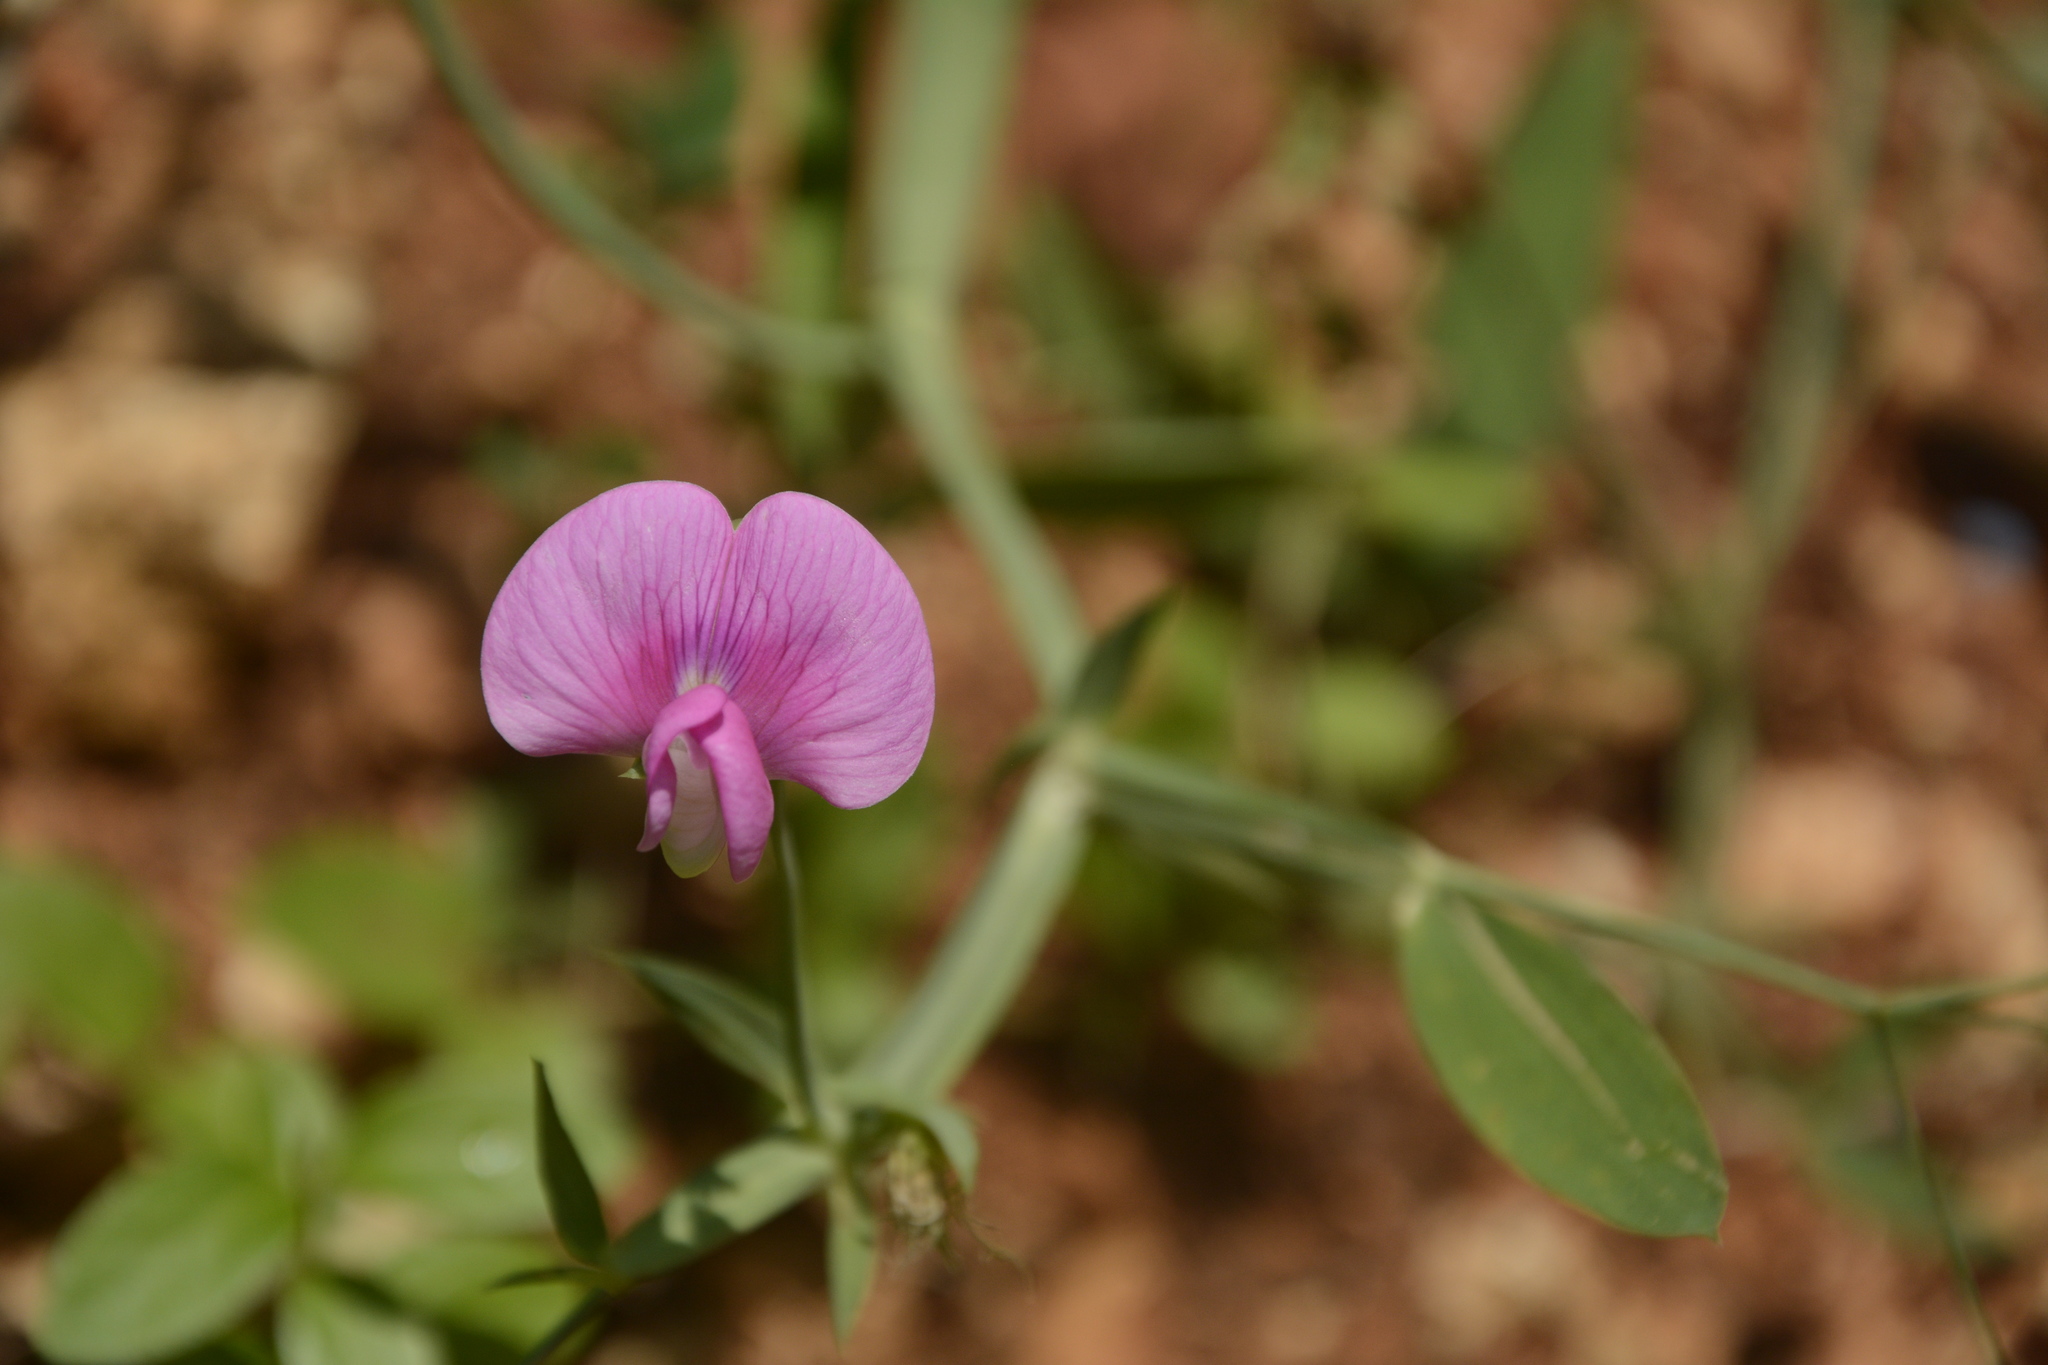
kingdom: Plantae
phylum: Tracheophyta
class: Magnoliopsida
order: Fabales
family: Fabaceae
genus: Lathyrus
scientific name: Lathyrus latifolius
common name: Perennial pea
